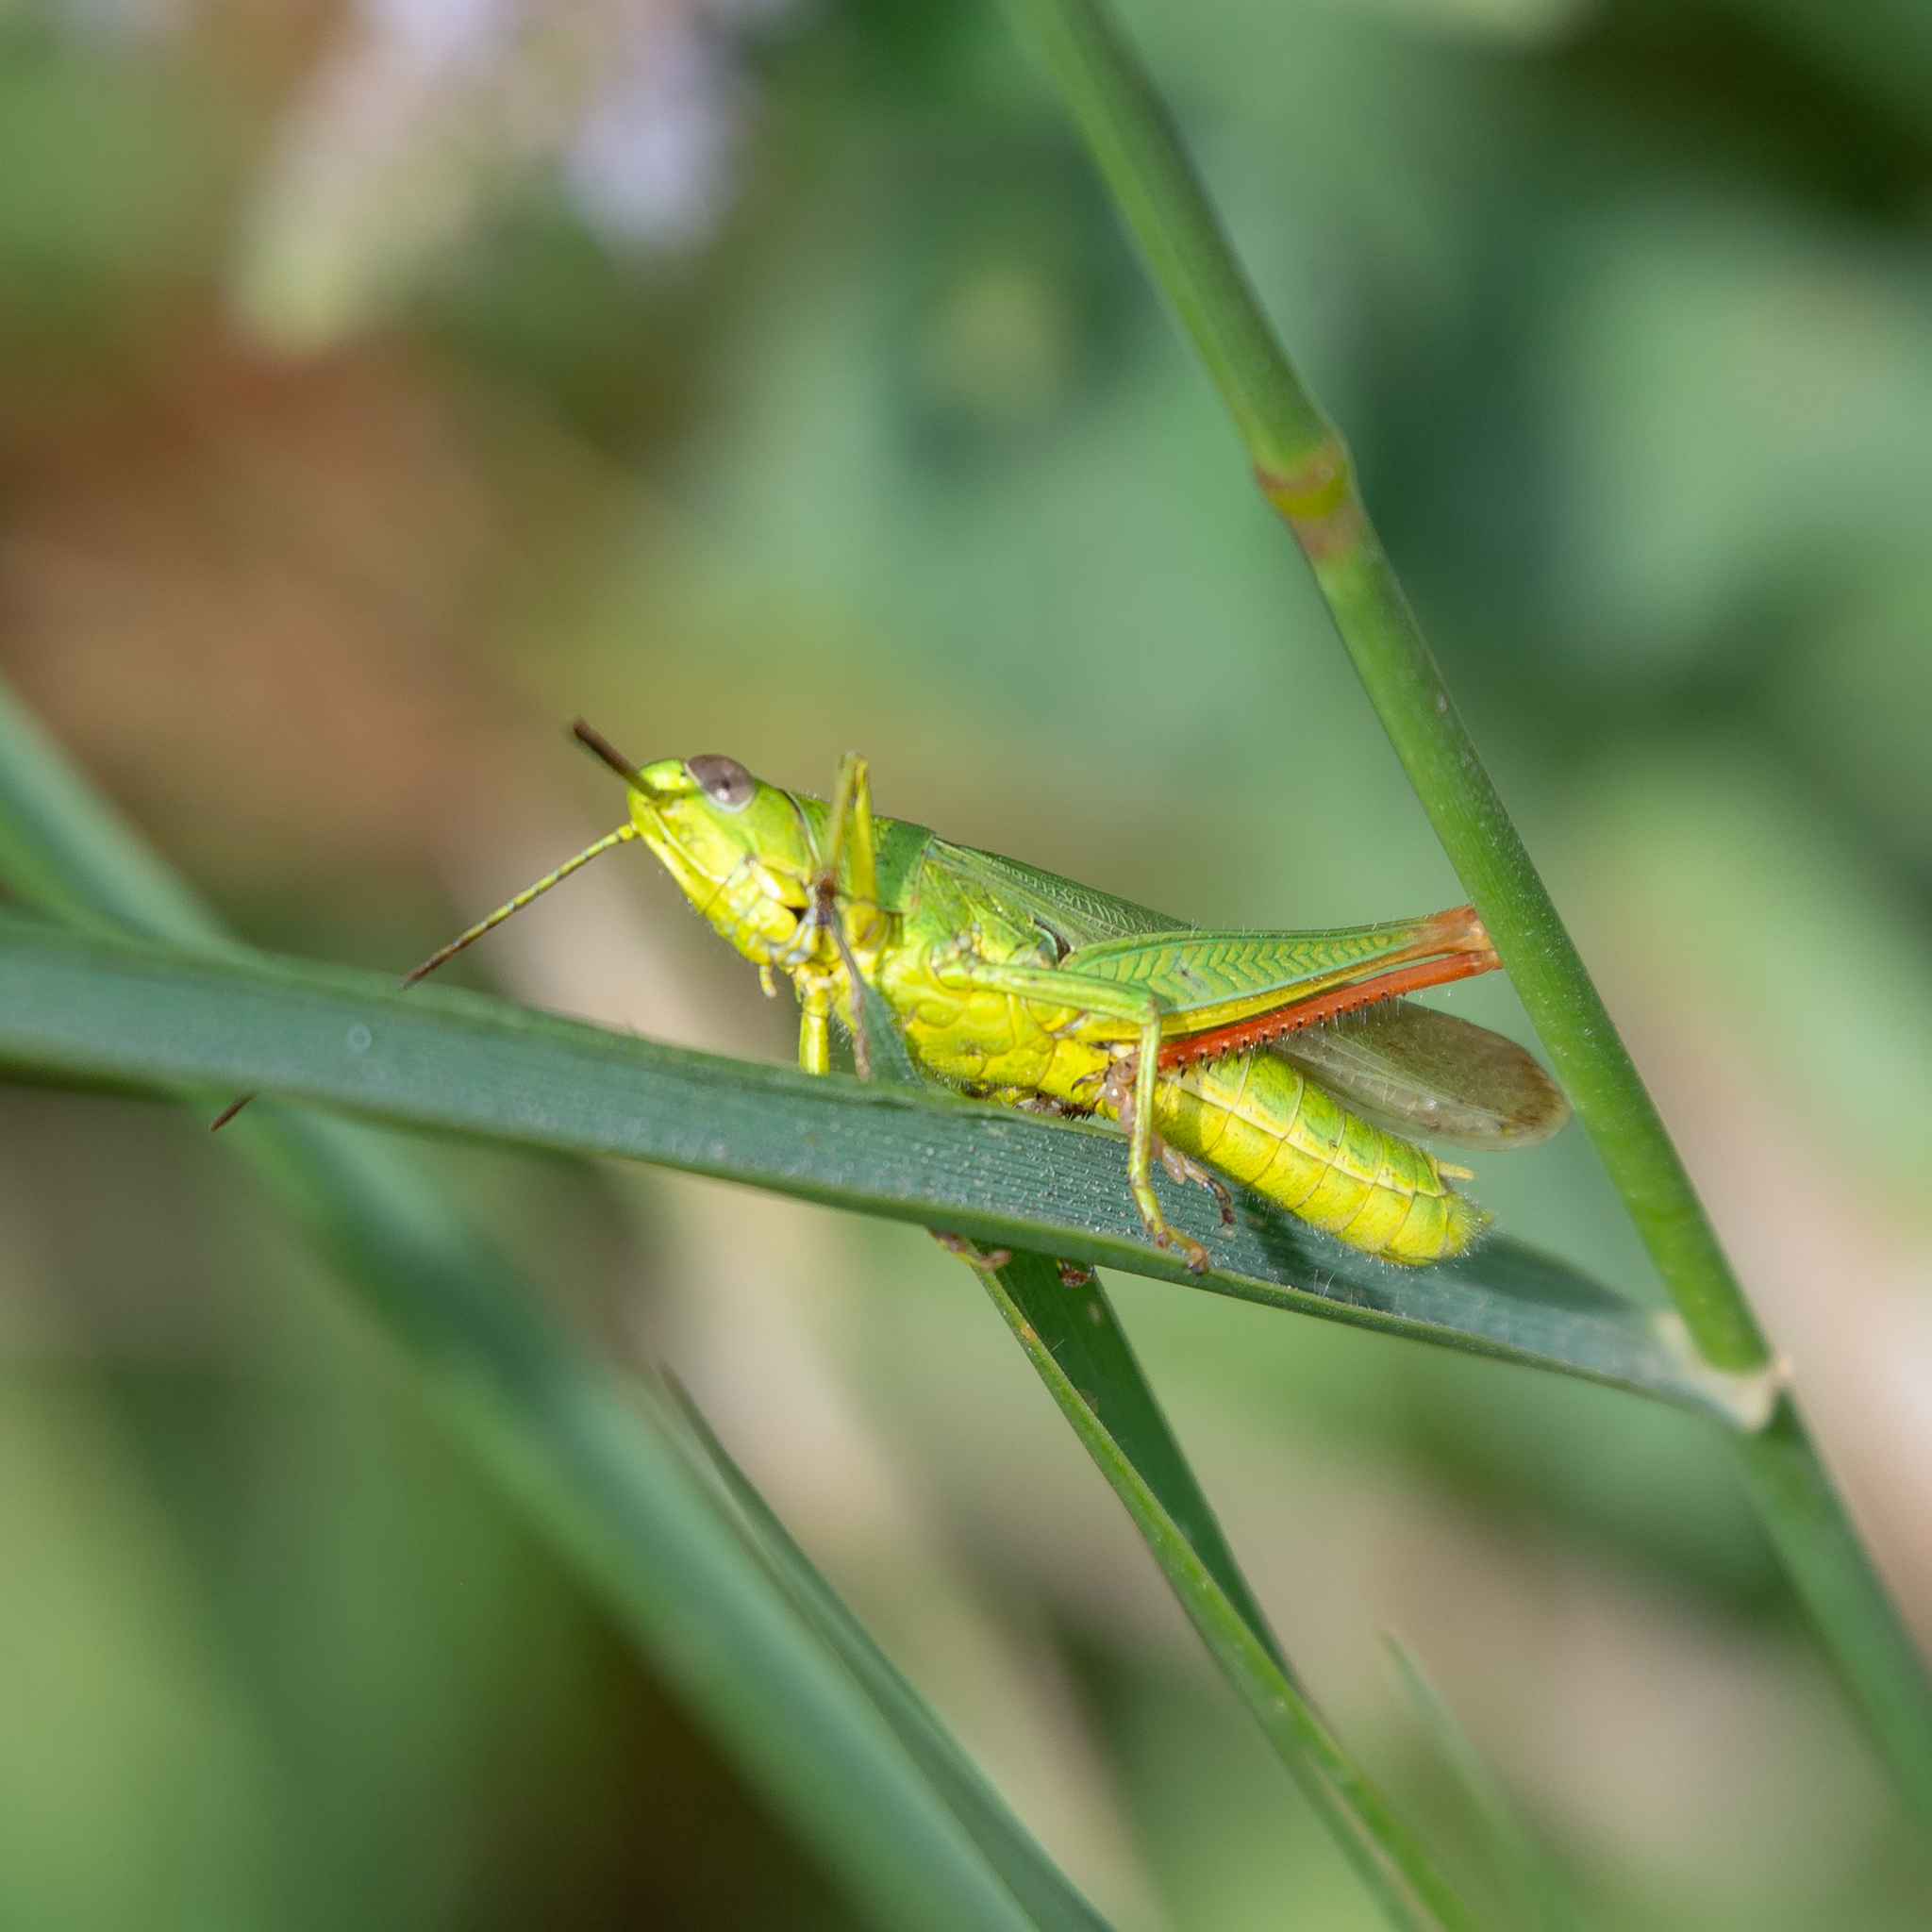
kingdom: Animalia
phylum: Arthropoda
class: Insecta
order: Orthoptera
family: Acrididae
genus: Chorthippus
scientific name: Chorthippus jucundus
